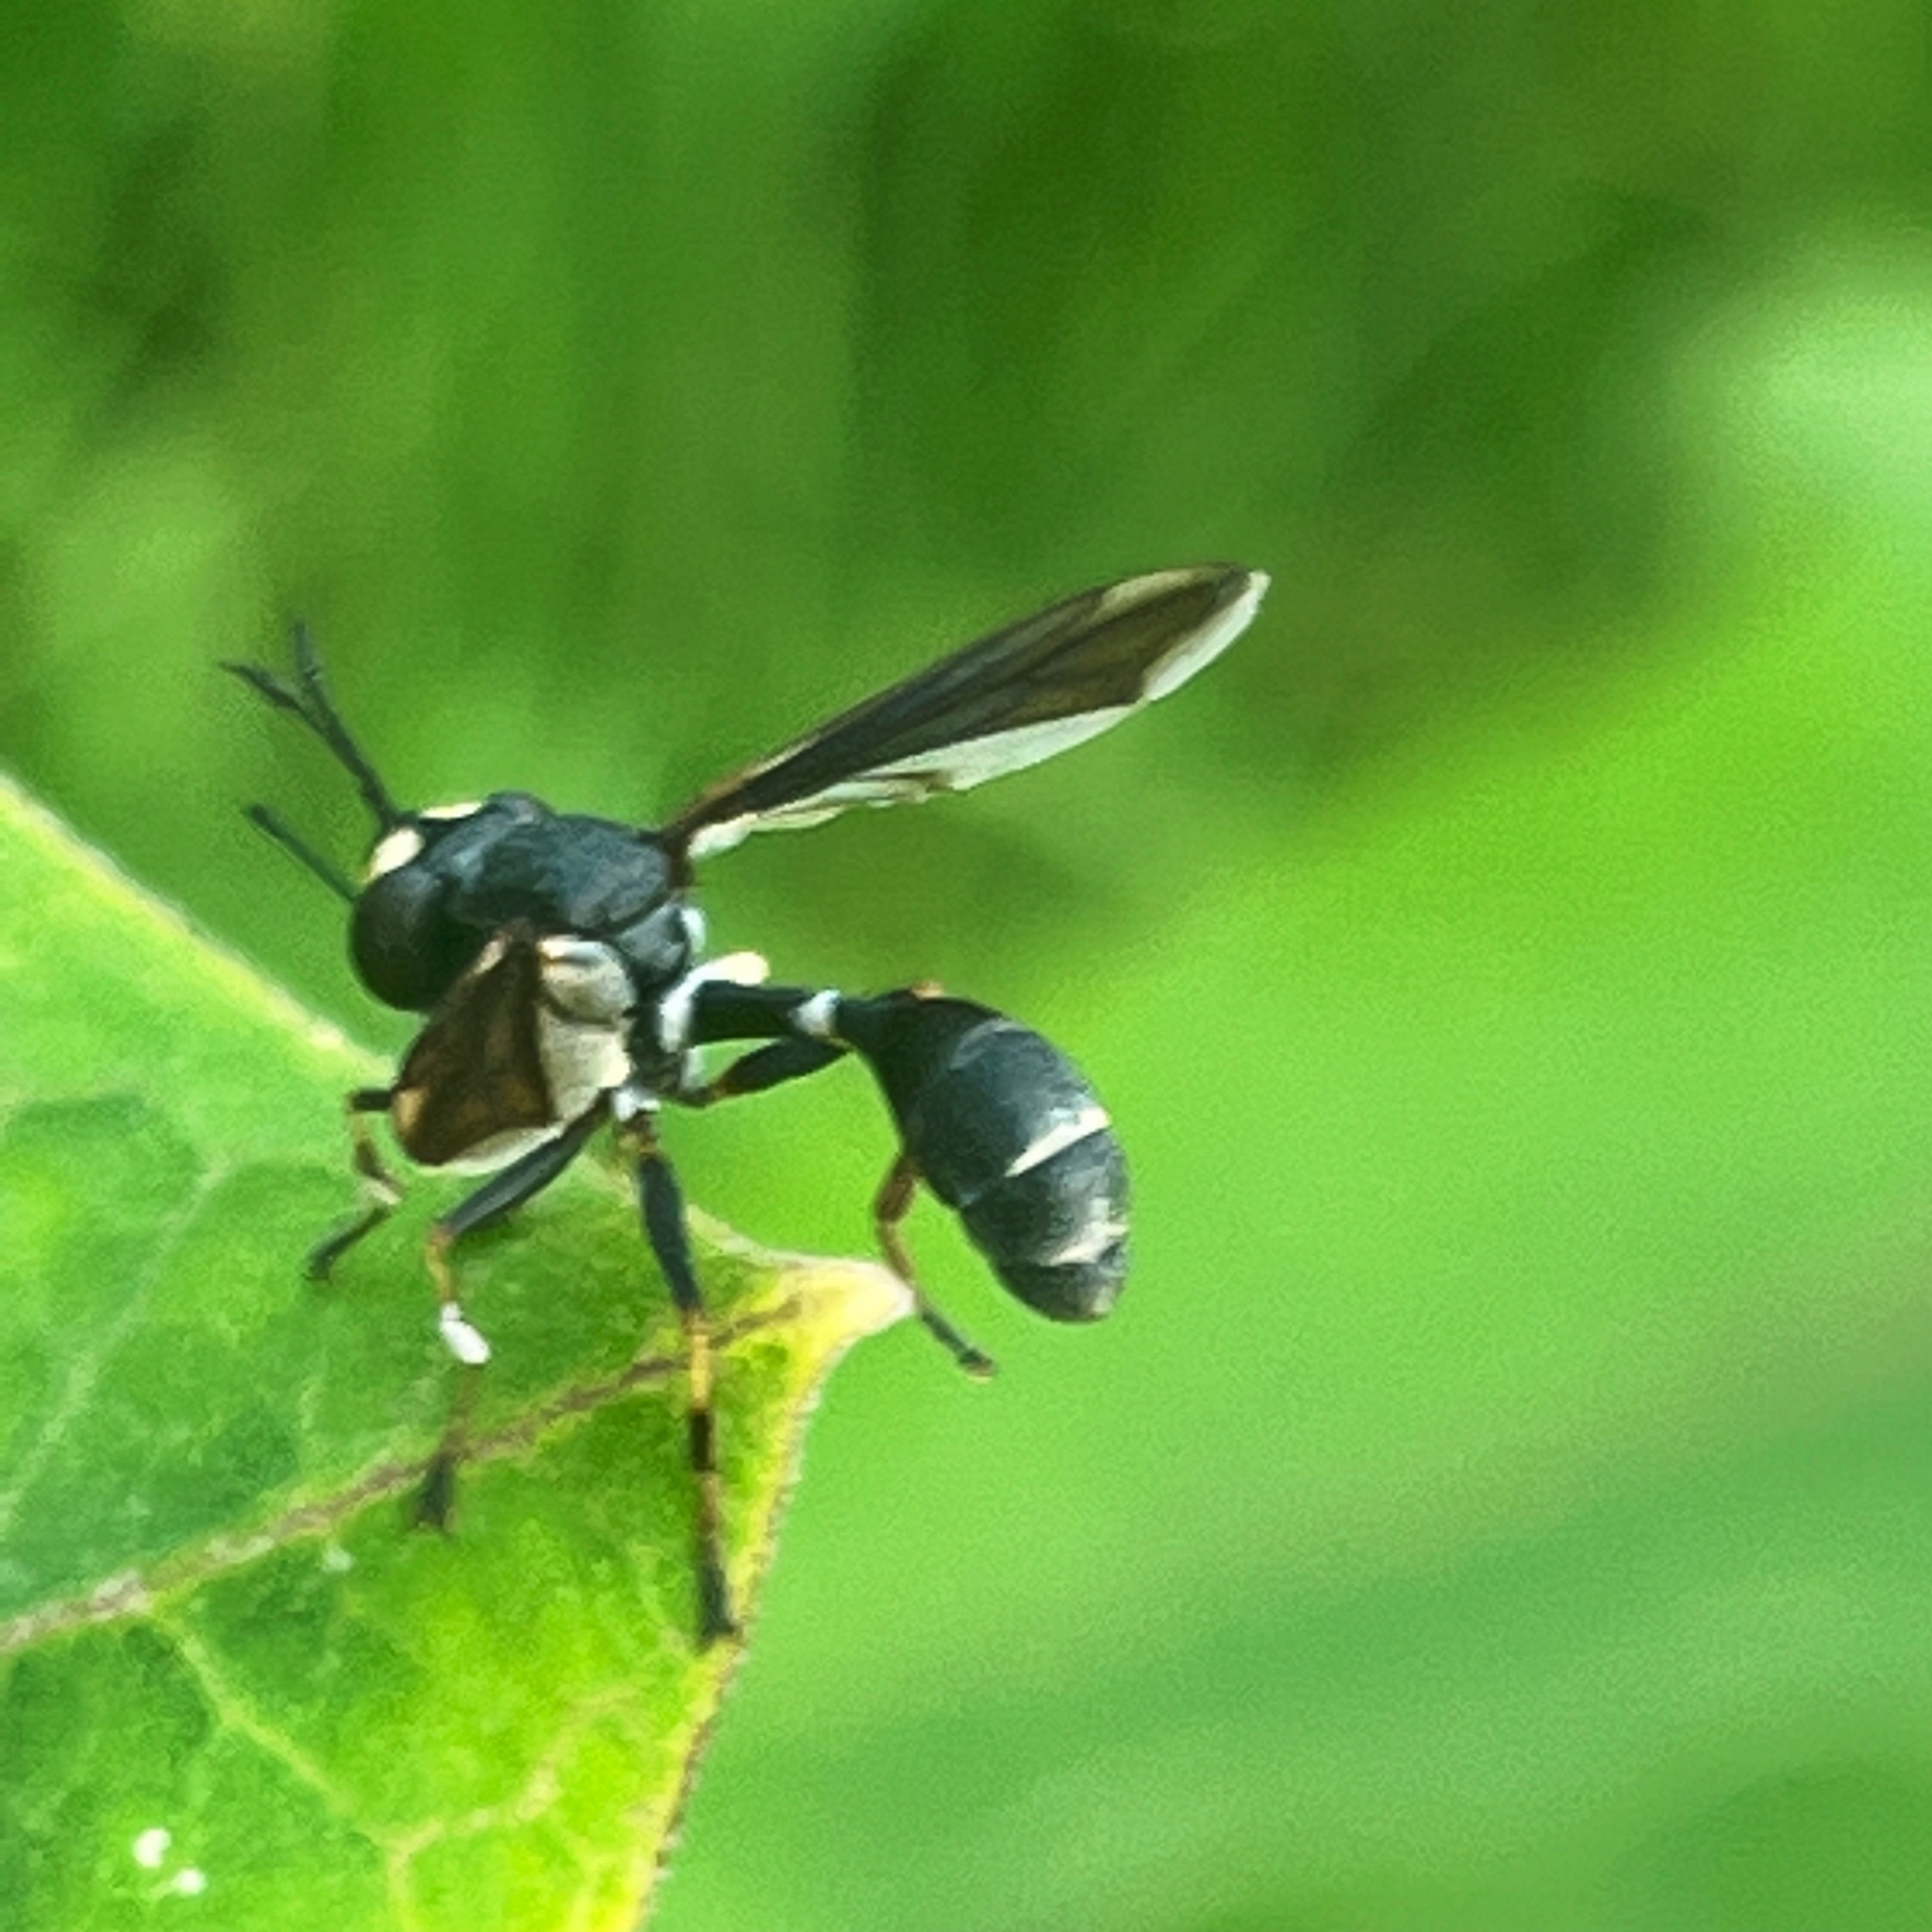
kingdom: Animalia
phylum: Arthropoda
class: Insecta
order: Diptera
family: Conopidae
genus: Physocephala
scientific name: Physocephala tibialis
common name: Common eastern physocephala
